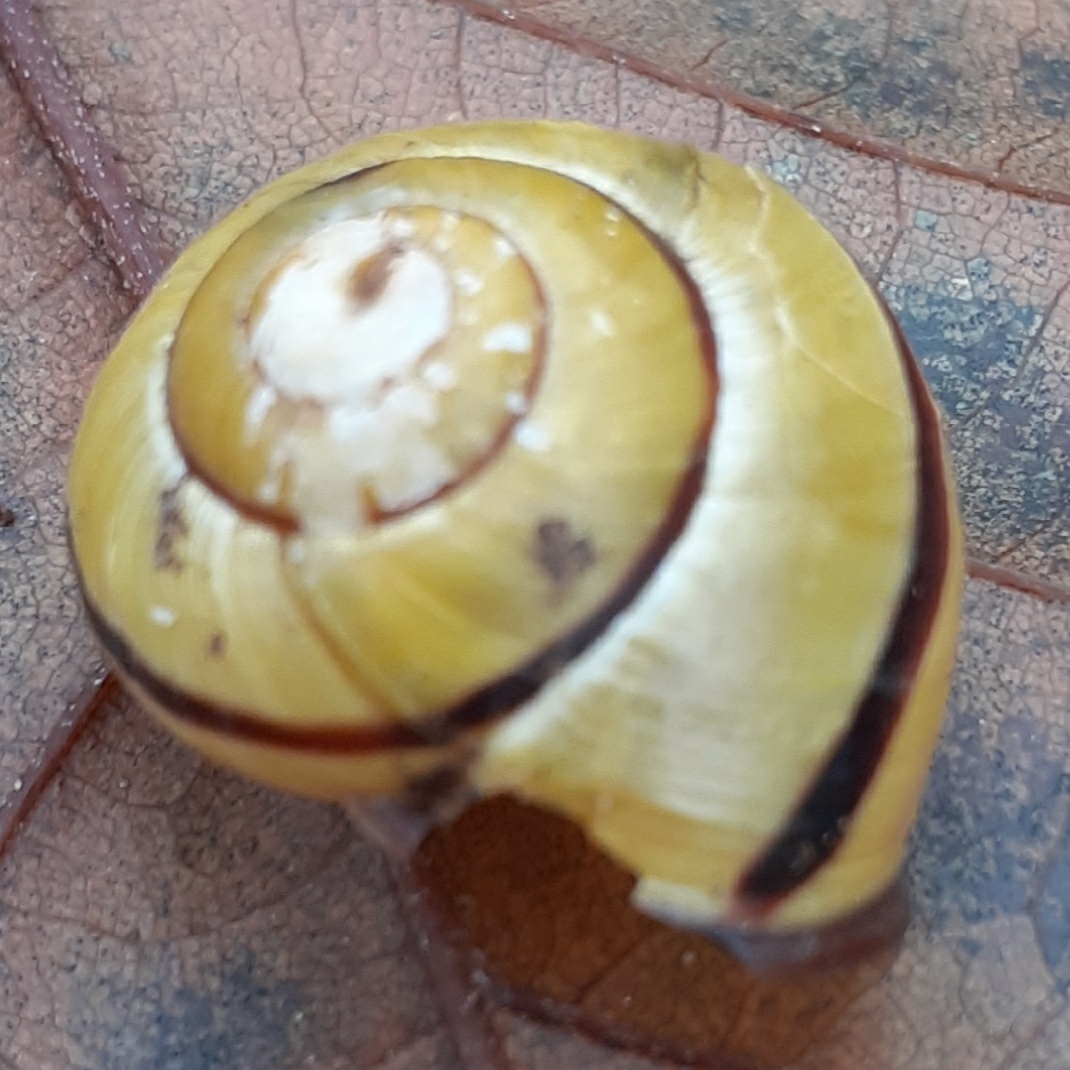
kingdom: Animalia
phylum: Mollusca
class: Gastropoda
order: Stylommatophora
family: Helicidae
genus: Cepaea
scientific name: Cepaea nemoralis
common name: Grovesnail
